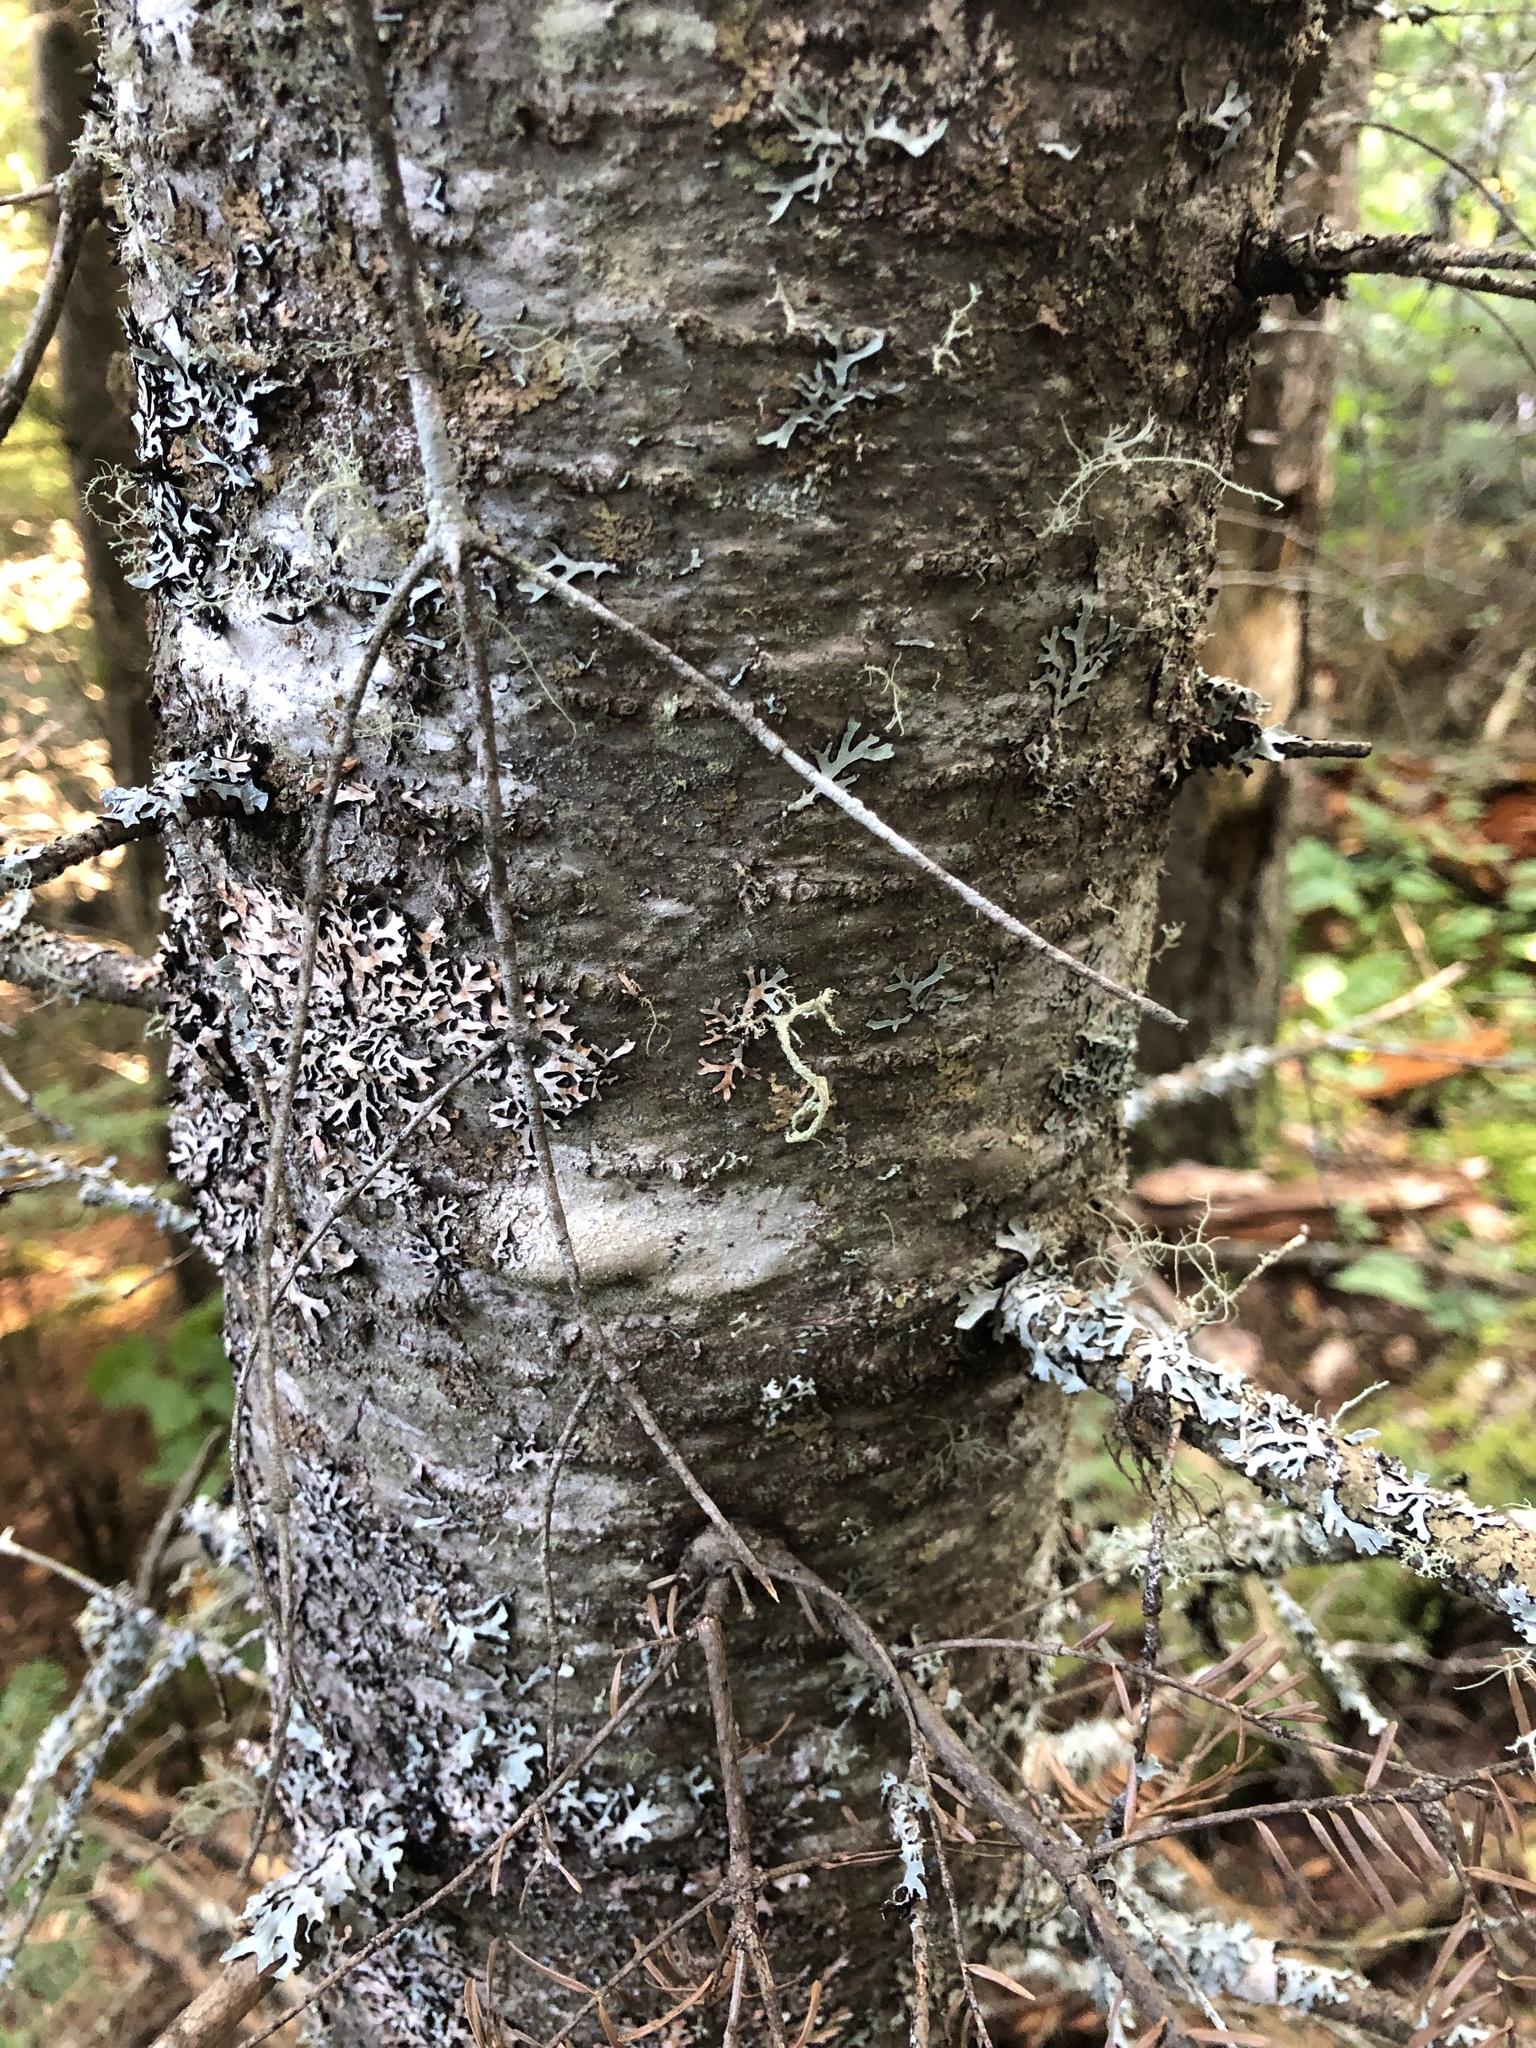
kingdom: Plantae
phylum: Tracheophyta
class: Pinopsida
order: Pinales
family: Pinaceae
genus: Abies
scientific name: Abies balsamea
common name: Balsam fir
